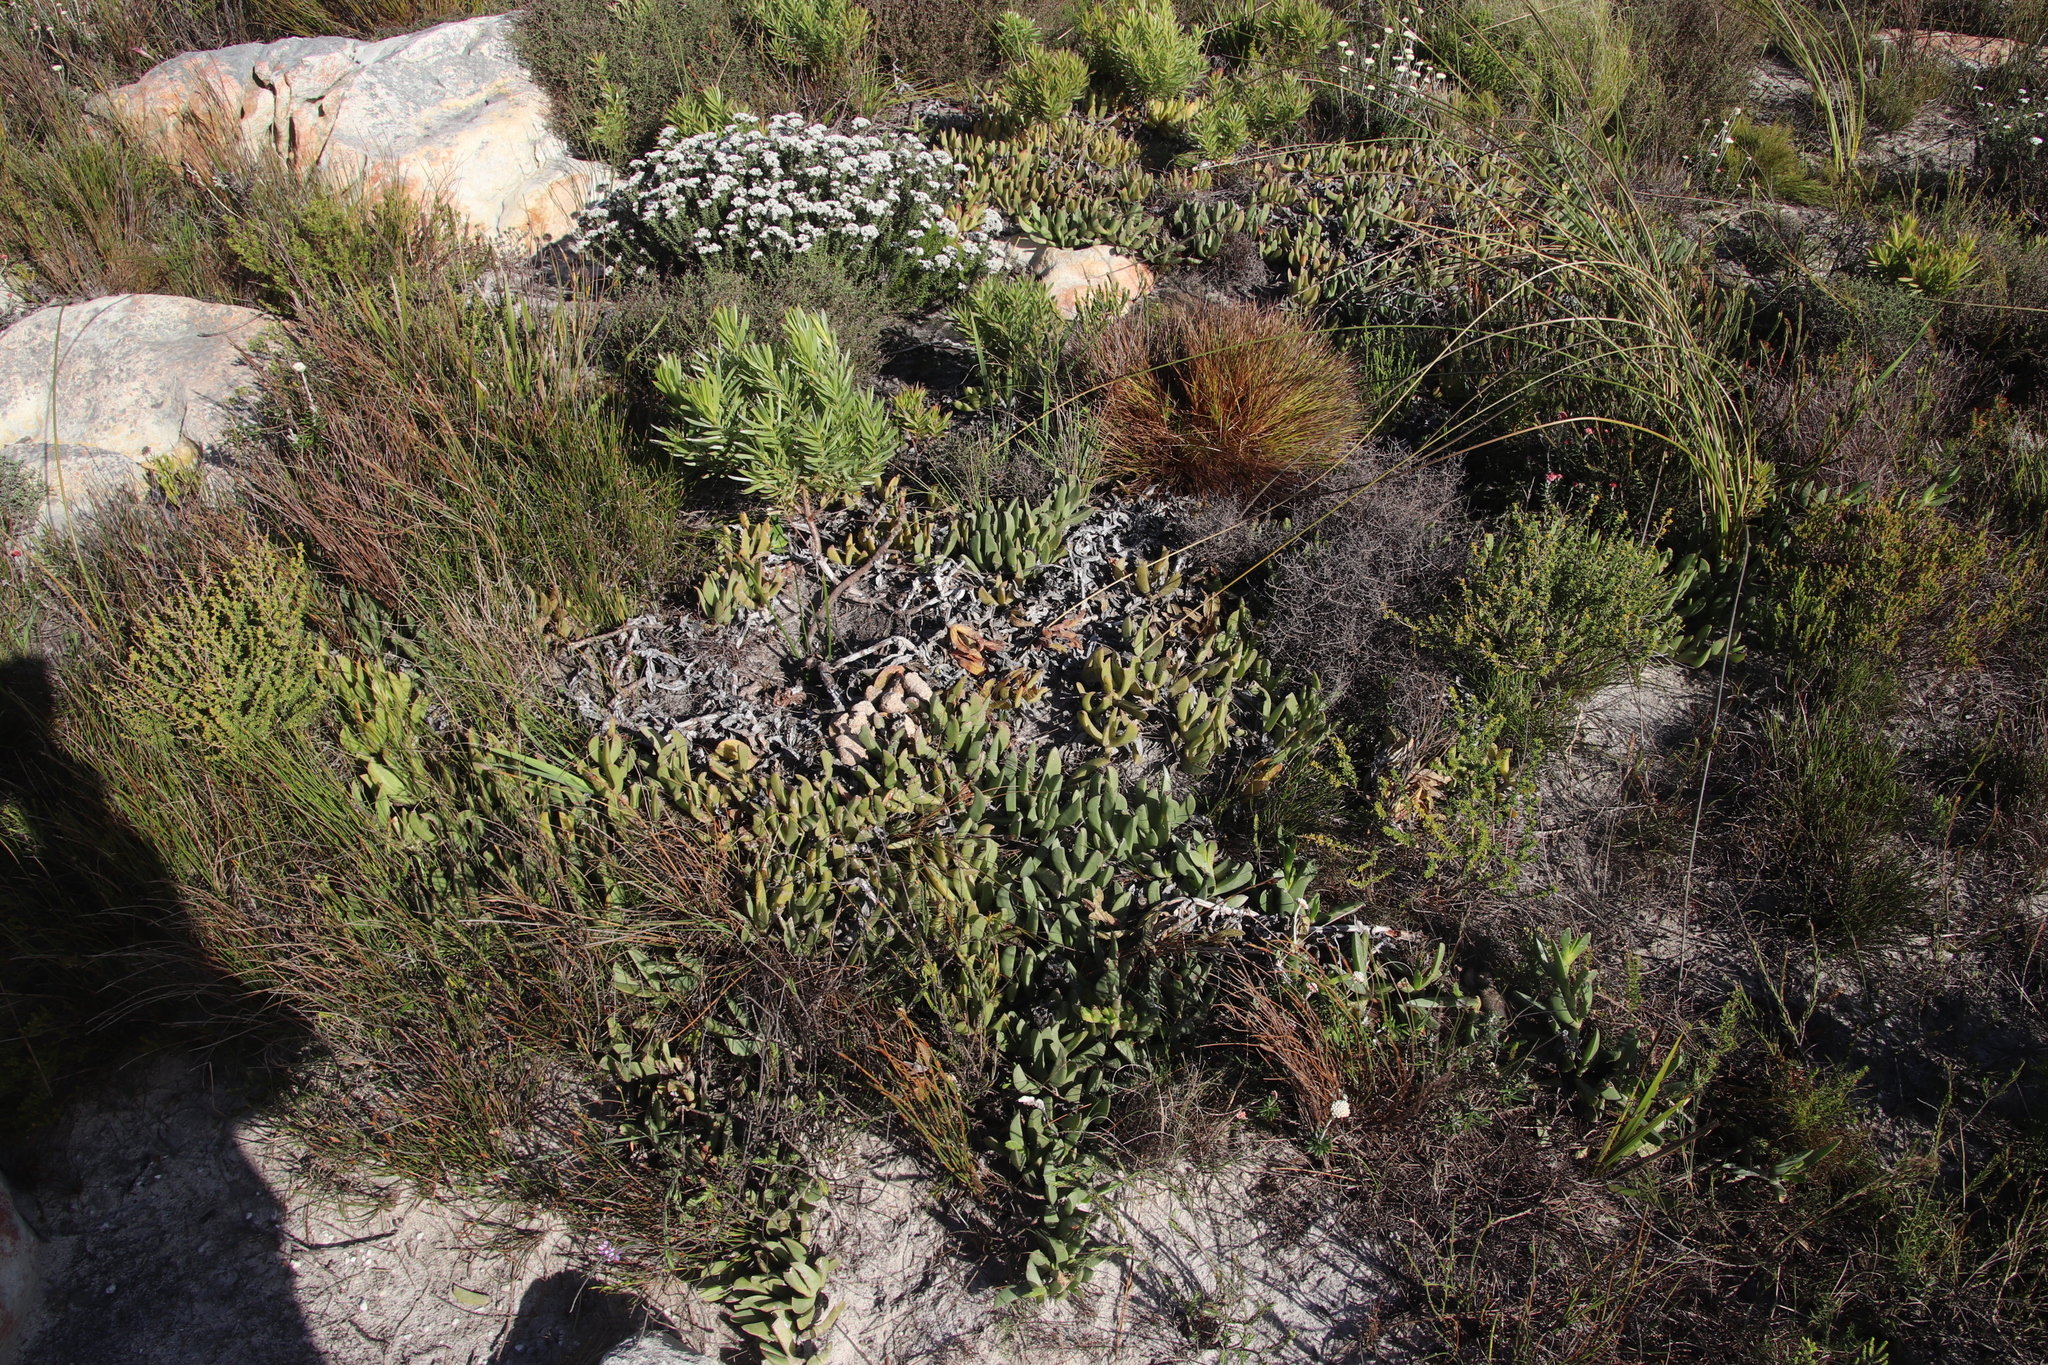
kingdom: Plantae
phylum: Tracheophyta
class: Magnoliopsida
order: Caryophyllales
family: Aizoaceae
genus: Carpobrotus
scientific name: Carpobrotus acinaciformis
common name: Sally-my-handsome
